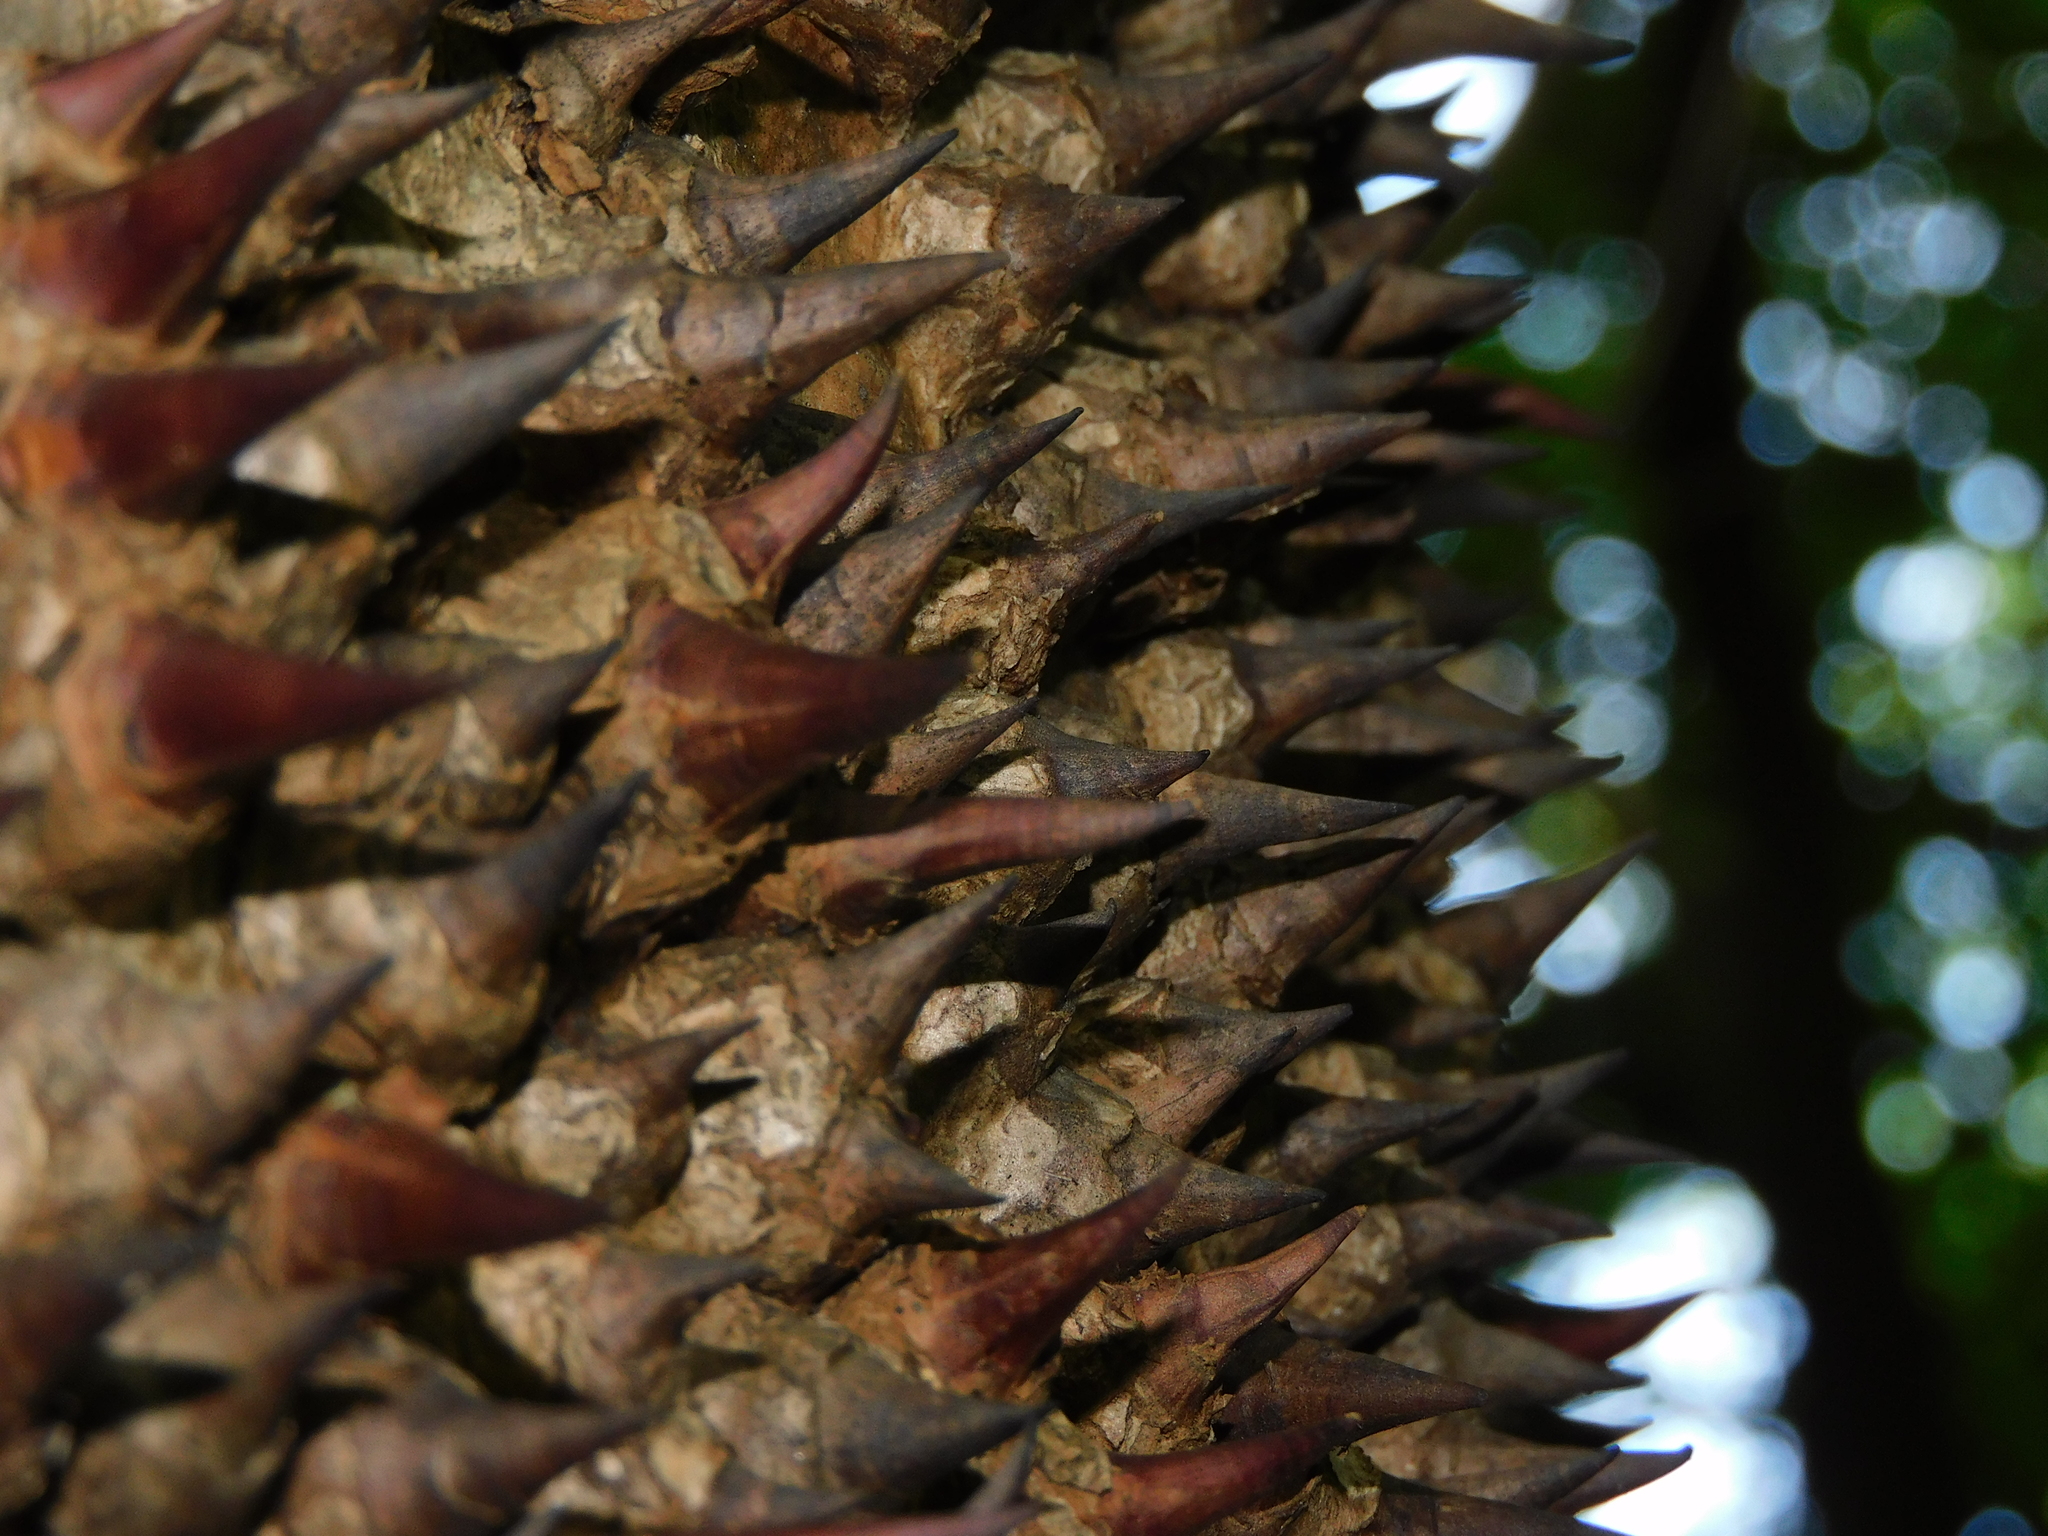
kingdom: Plantae
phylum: Tracheophyta
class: Magnoliopsida
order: Malpighiales
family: Euphorbiaceae
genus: Hura
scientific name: Hura crepitans
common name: Sandboxtree
